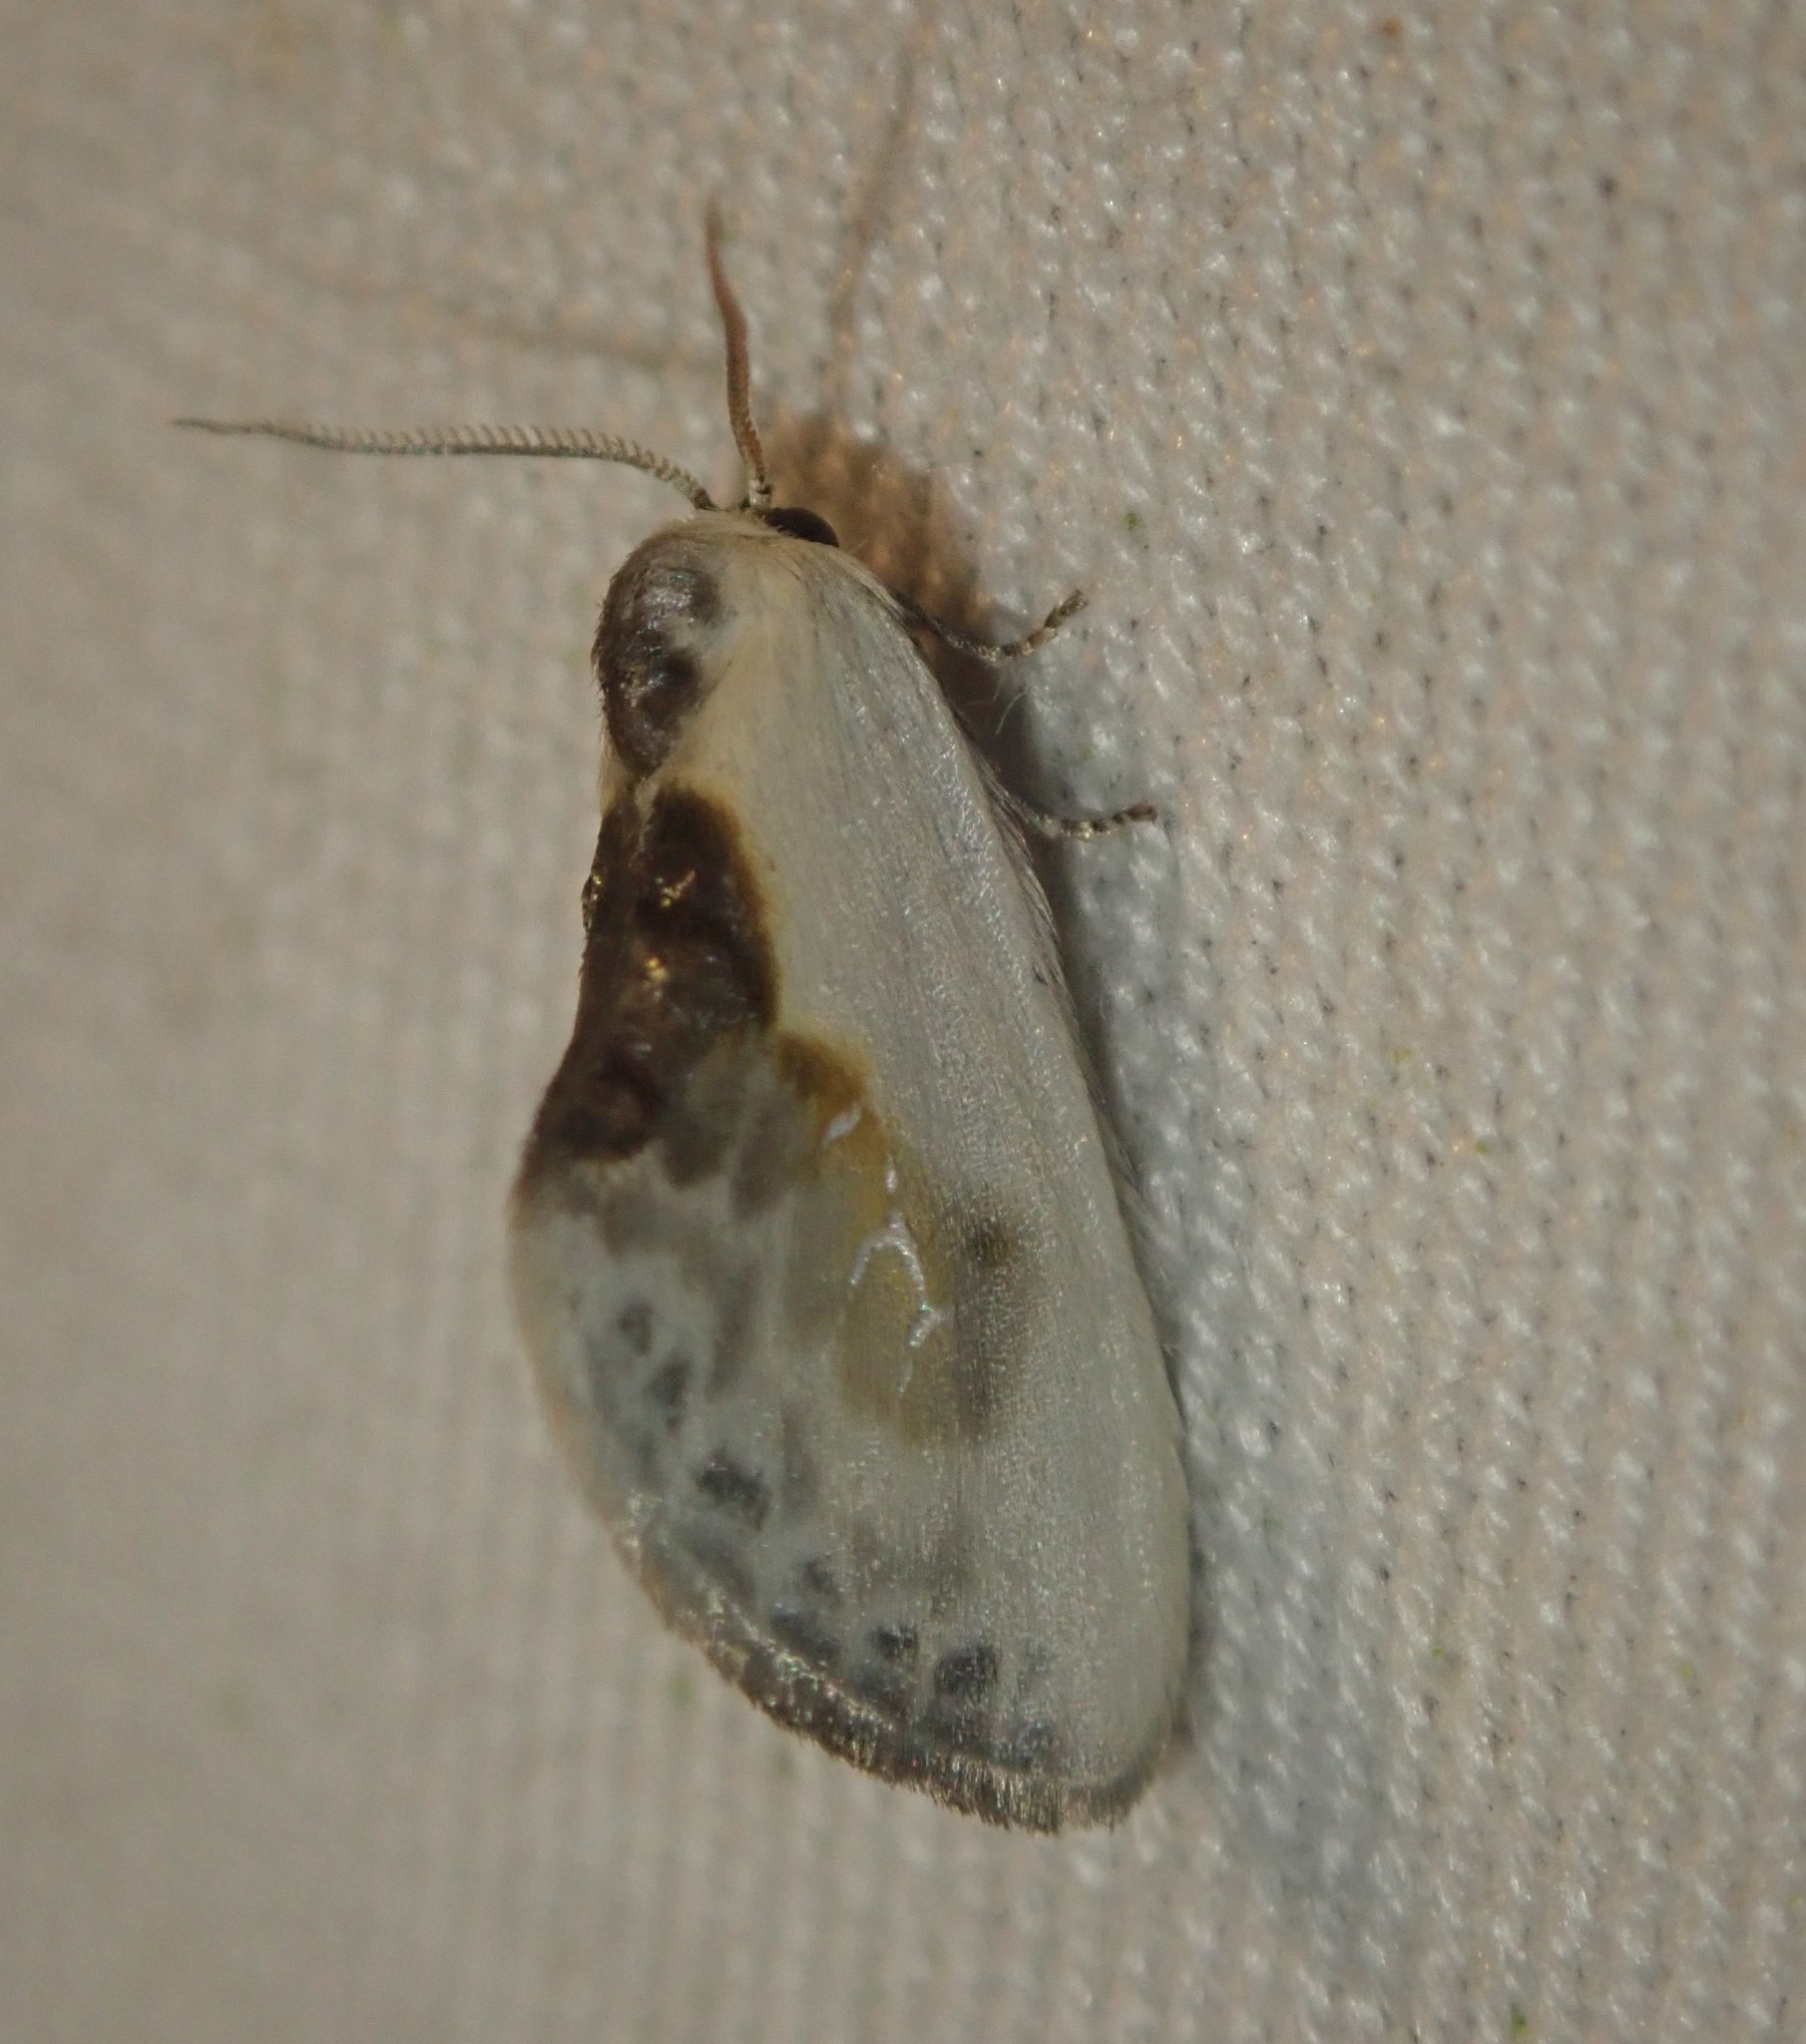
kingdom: Animalia
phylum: Arthropoda
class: Insecta
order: Lepidoptera
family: Drepanidae
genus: Cilix
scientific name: Cilix glaucata
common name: Chinese character
